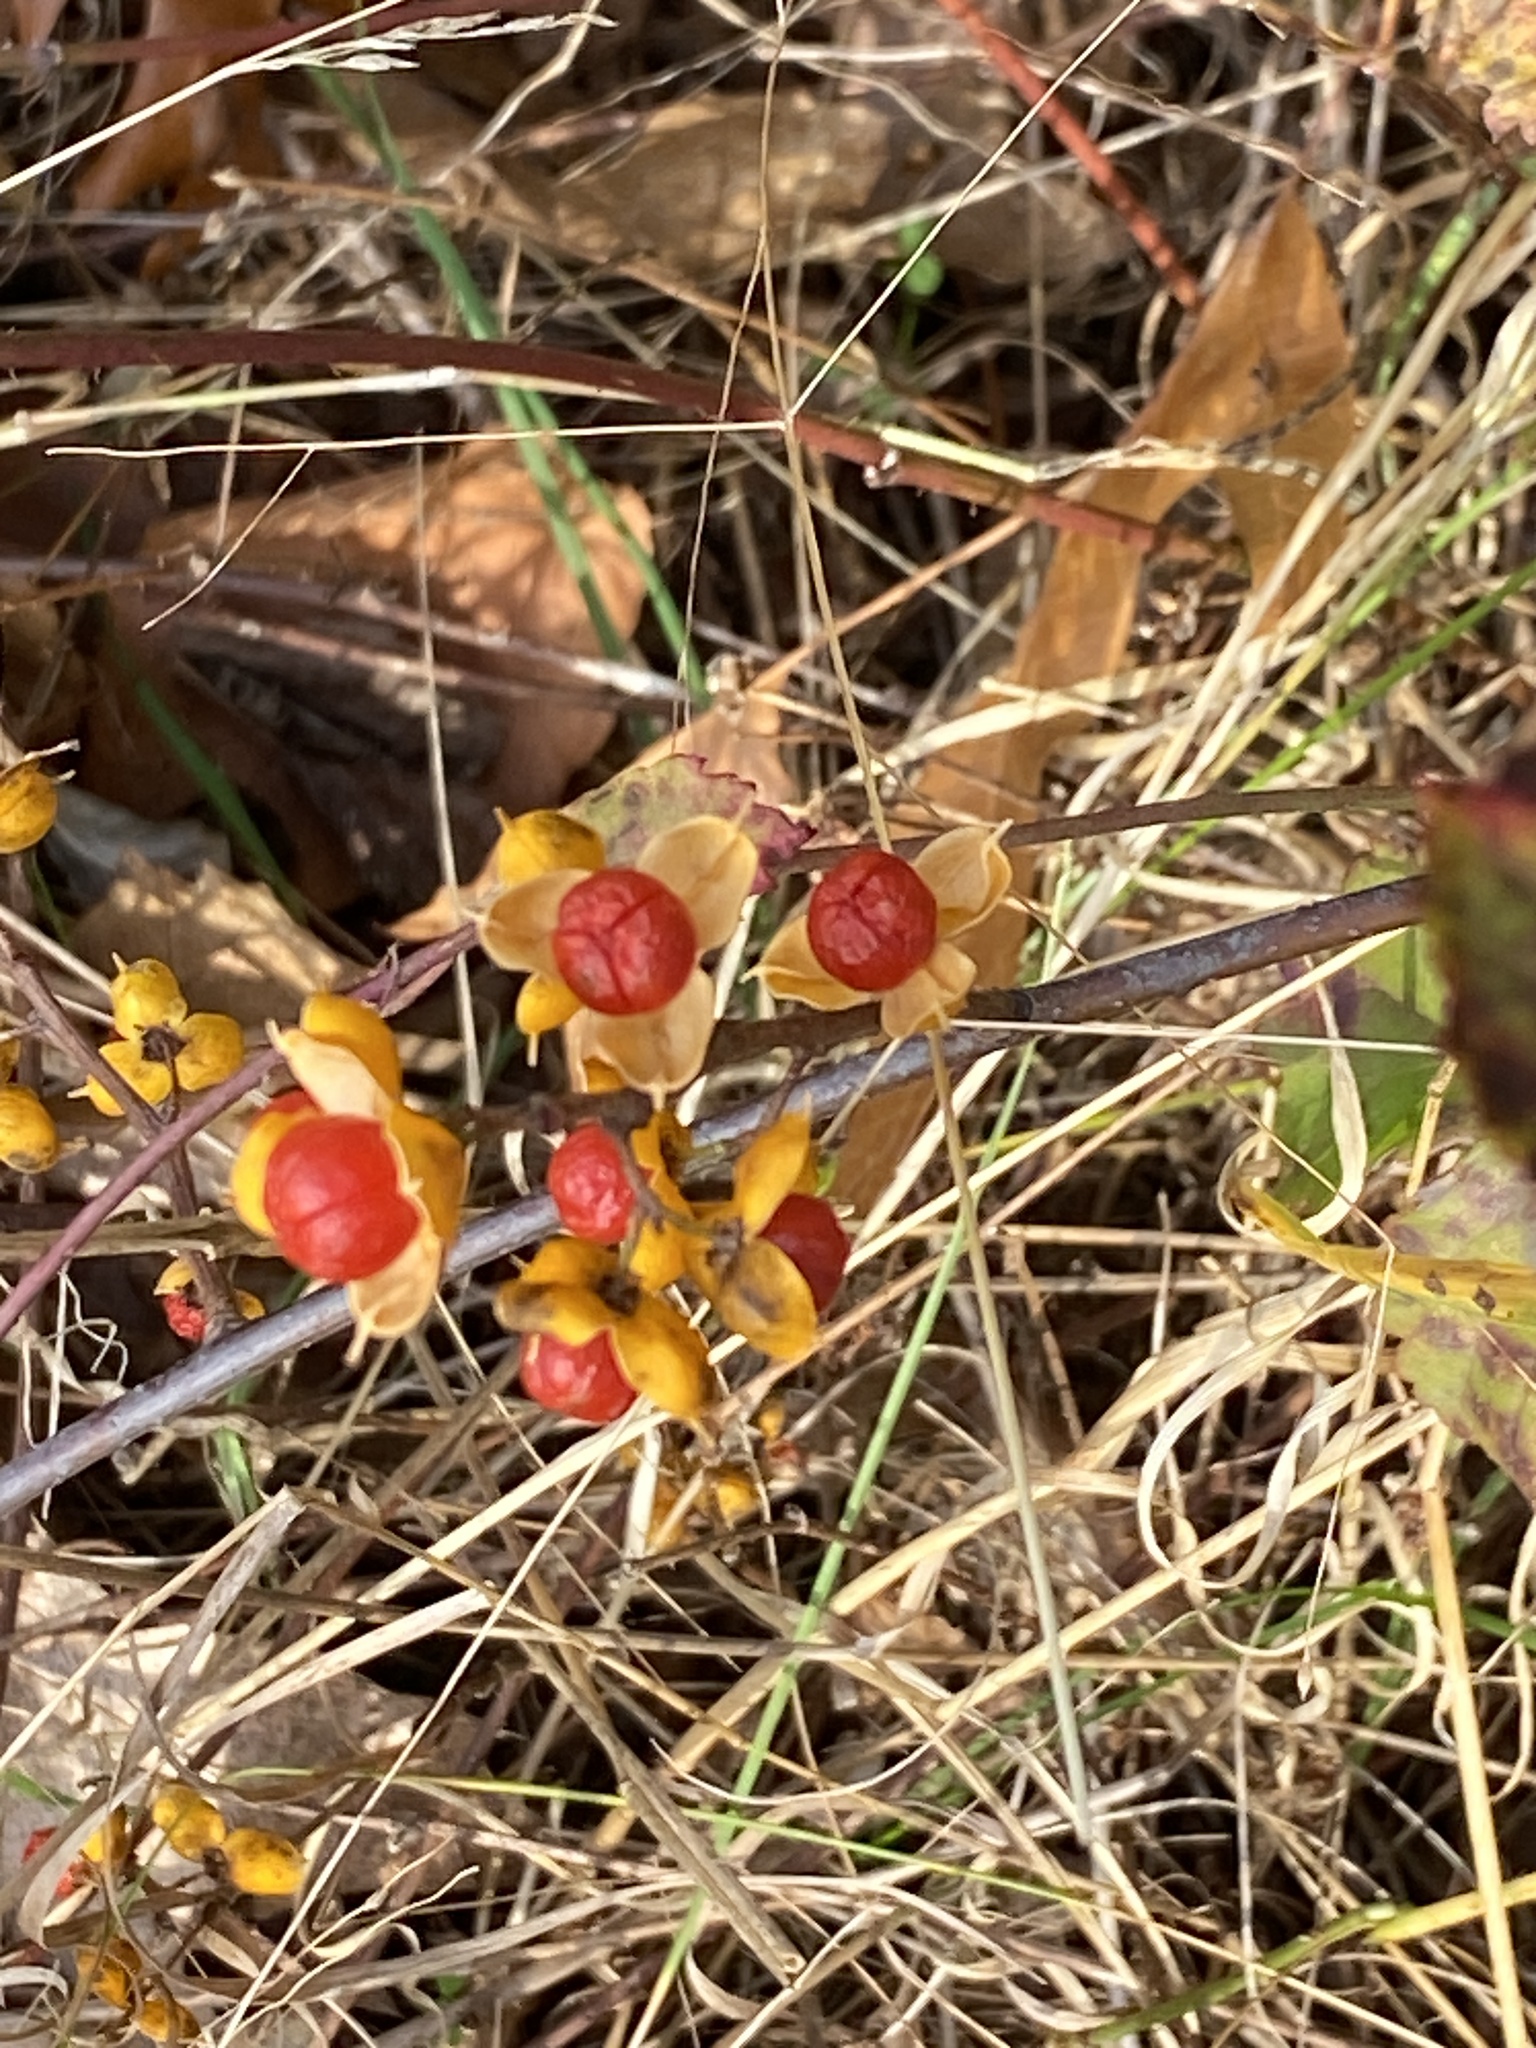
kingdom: Plantae
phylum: Tracheophyta
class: Magnoliopsida
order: Celastrales
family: Celastraceae
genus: Celastrus
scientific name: Celastrus orbiculatus
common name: Oriental bittersweet
